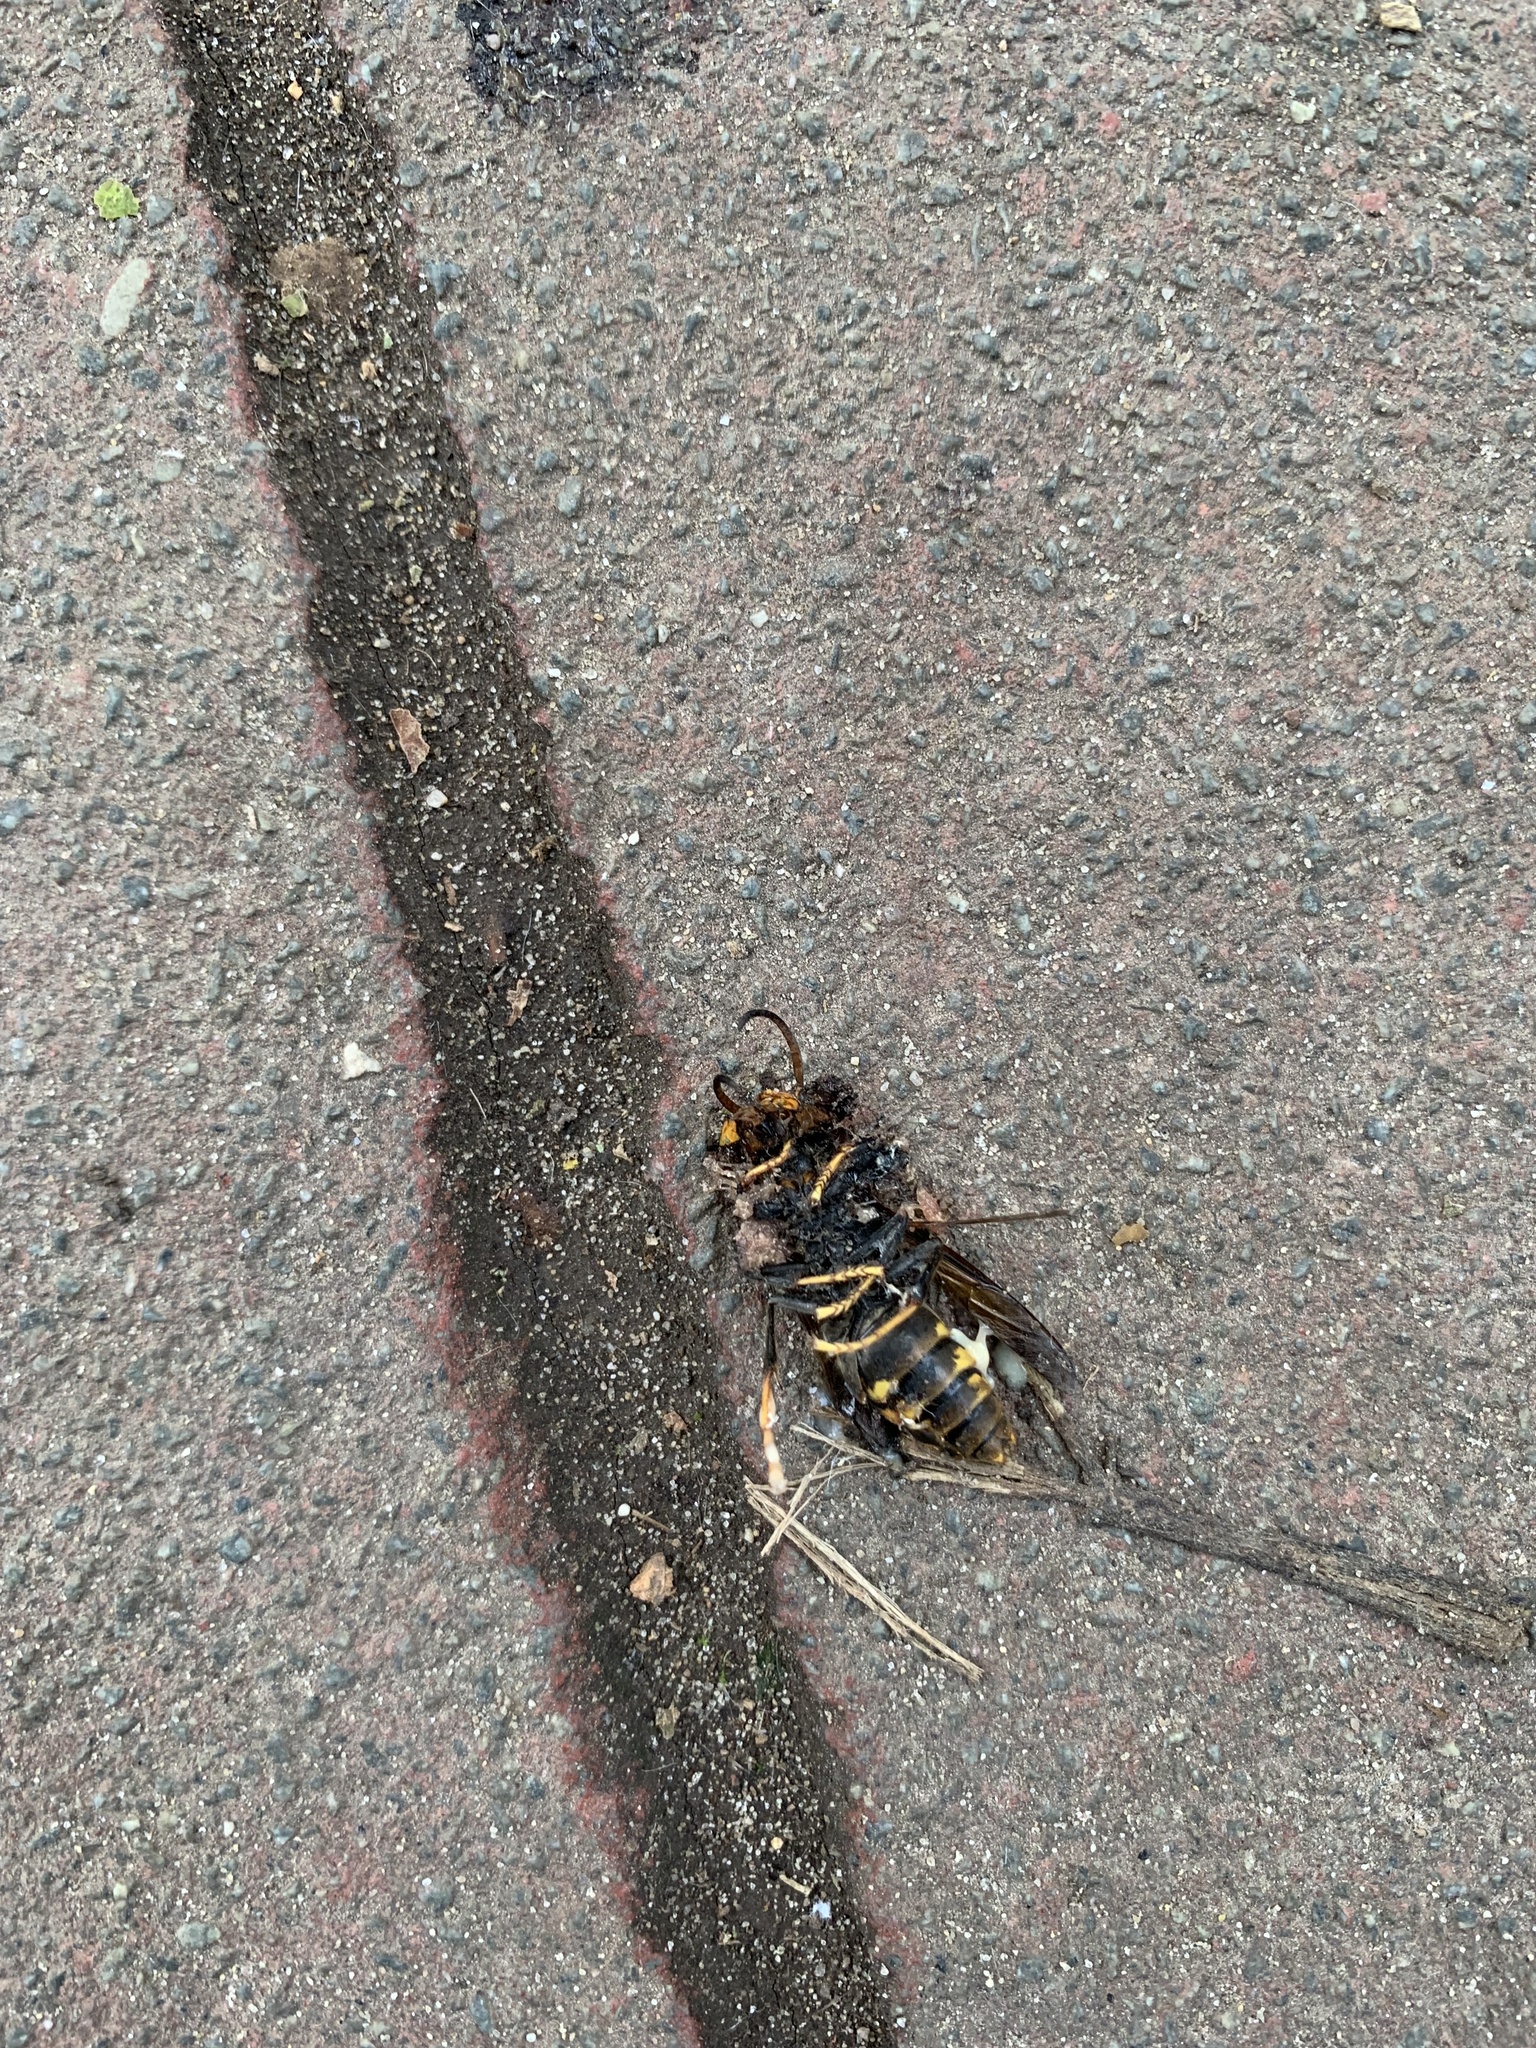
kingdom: Animalia
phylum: Arthropoda
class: Insecta
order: Hymenoptera
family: Vespidae
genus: Vespa
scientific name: Vespa velutina
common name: Asian hornet
